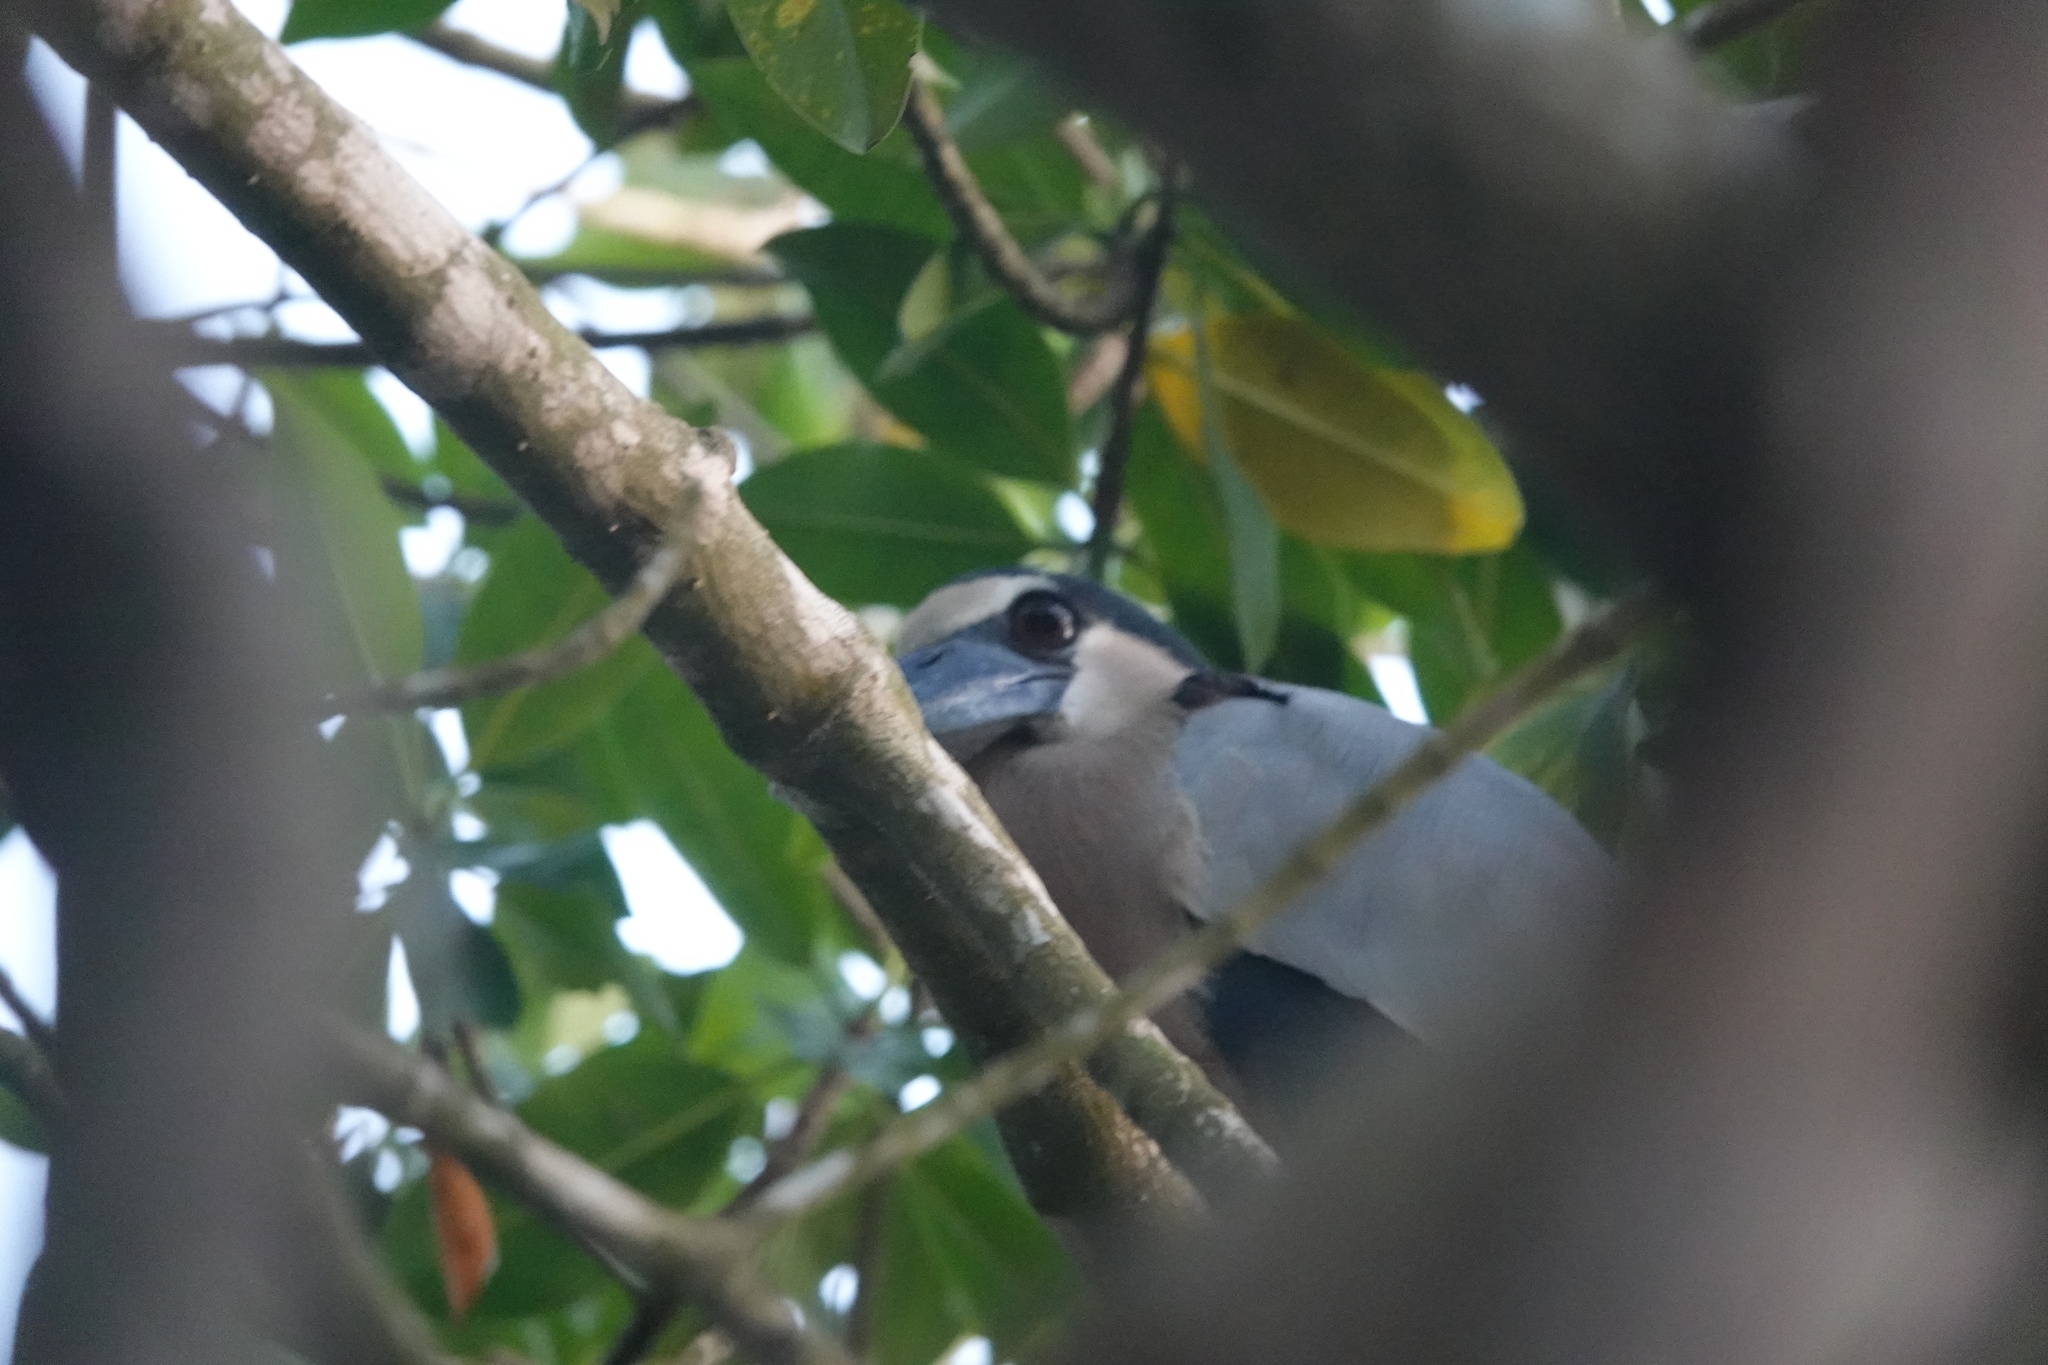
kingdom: Animalia
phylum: Chordata
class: Aves
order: Pelecaniformes
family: Ardeidae
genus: Cochlearius
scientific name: Cochlearius cochlearius
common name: Boat-billed heron
